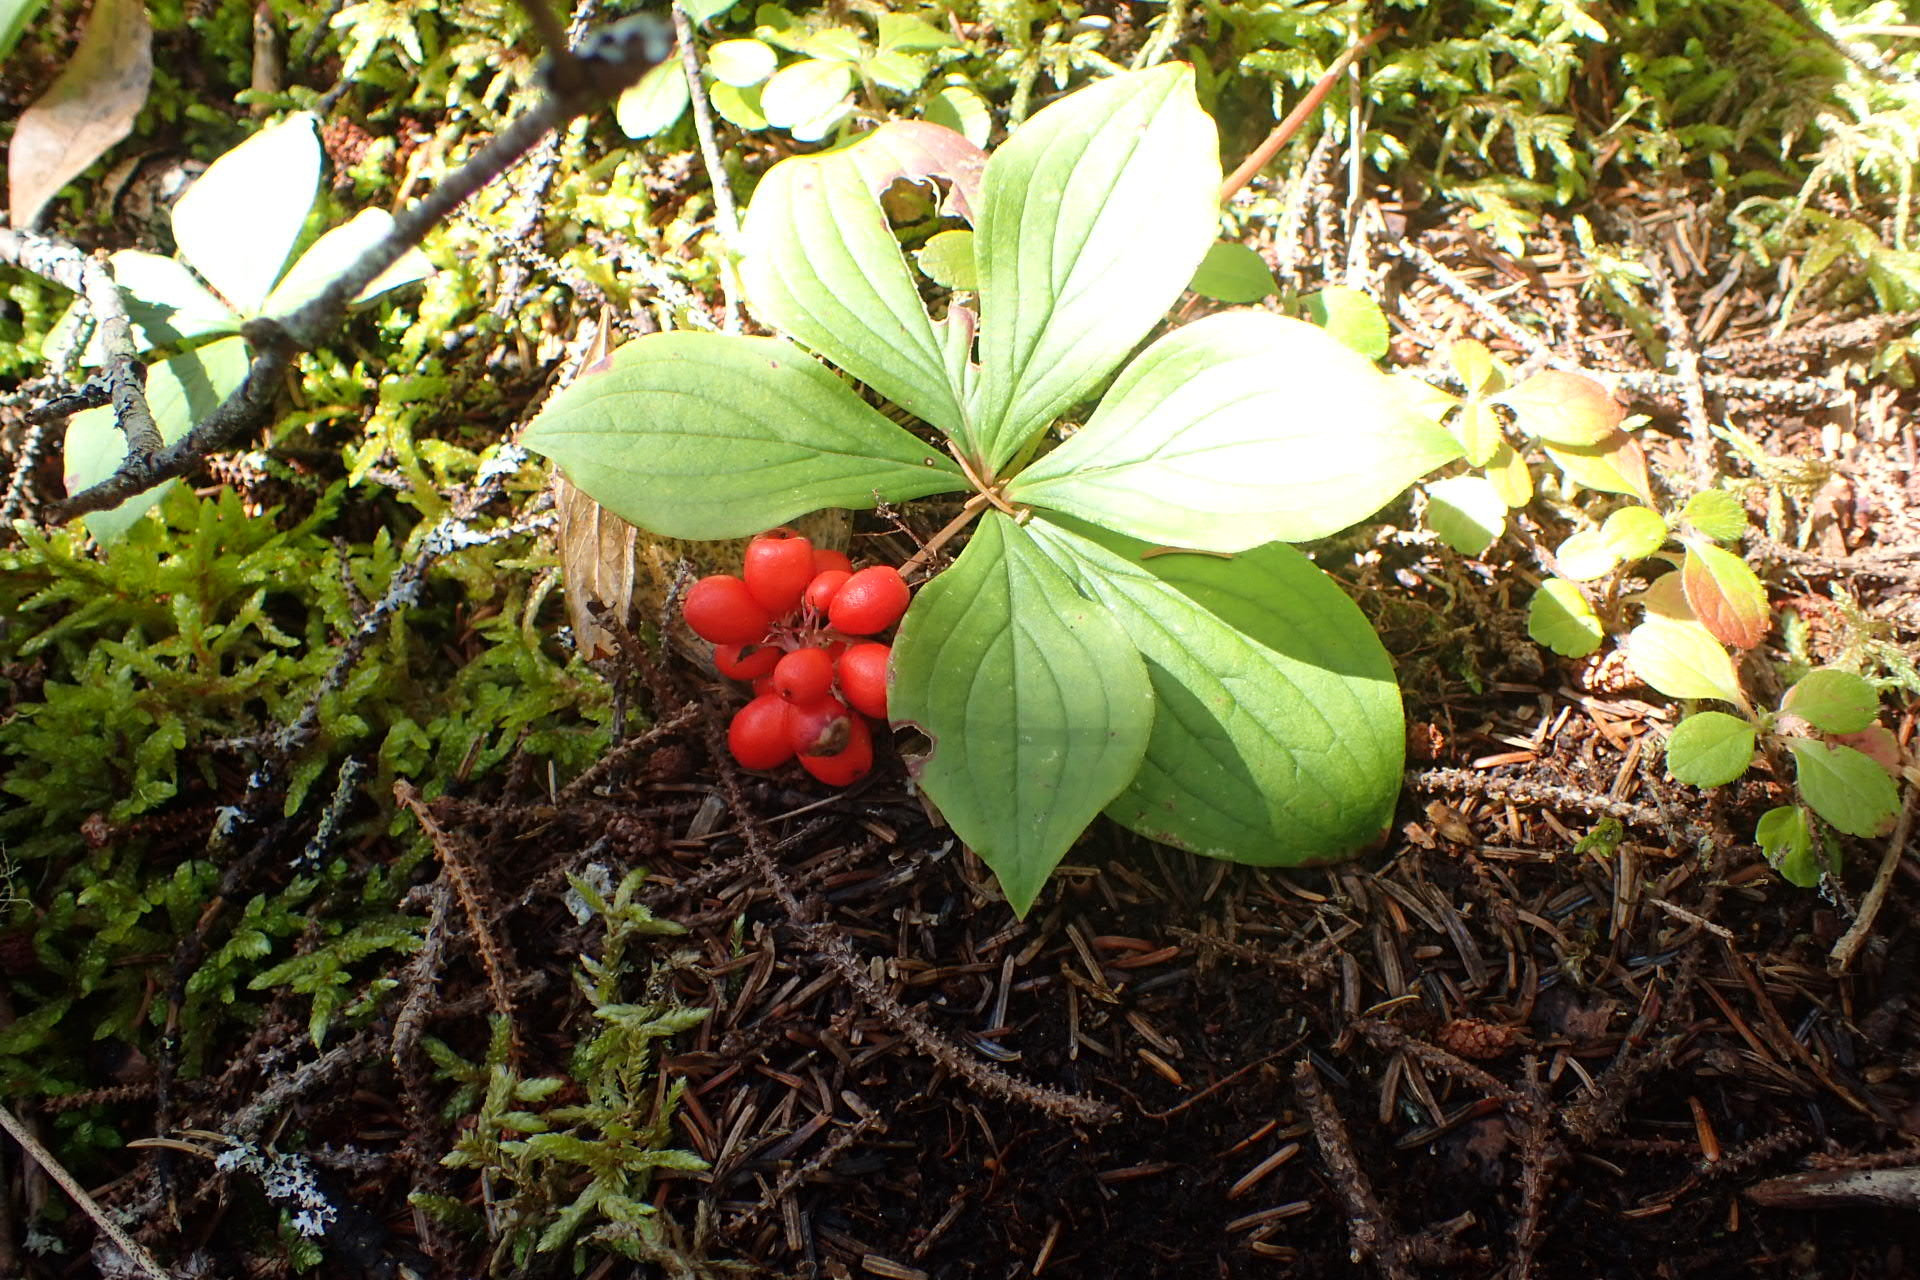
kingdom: Plantae
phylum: Tracheophyta
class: Magnoliopsida
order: Cornales
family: Cornaceae
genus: Cornus
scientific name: Cornus canadensis
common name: Creeping dogwood
